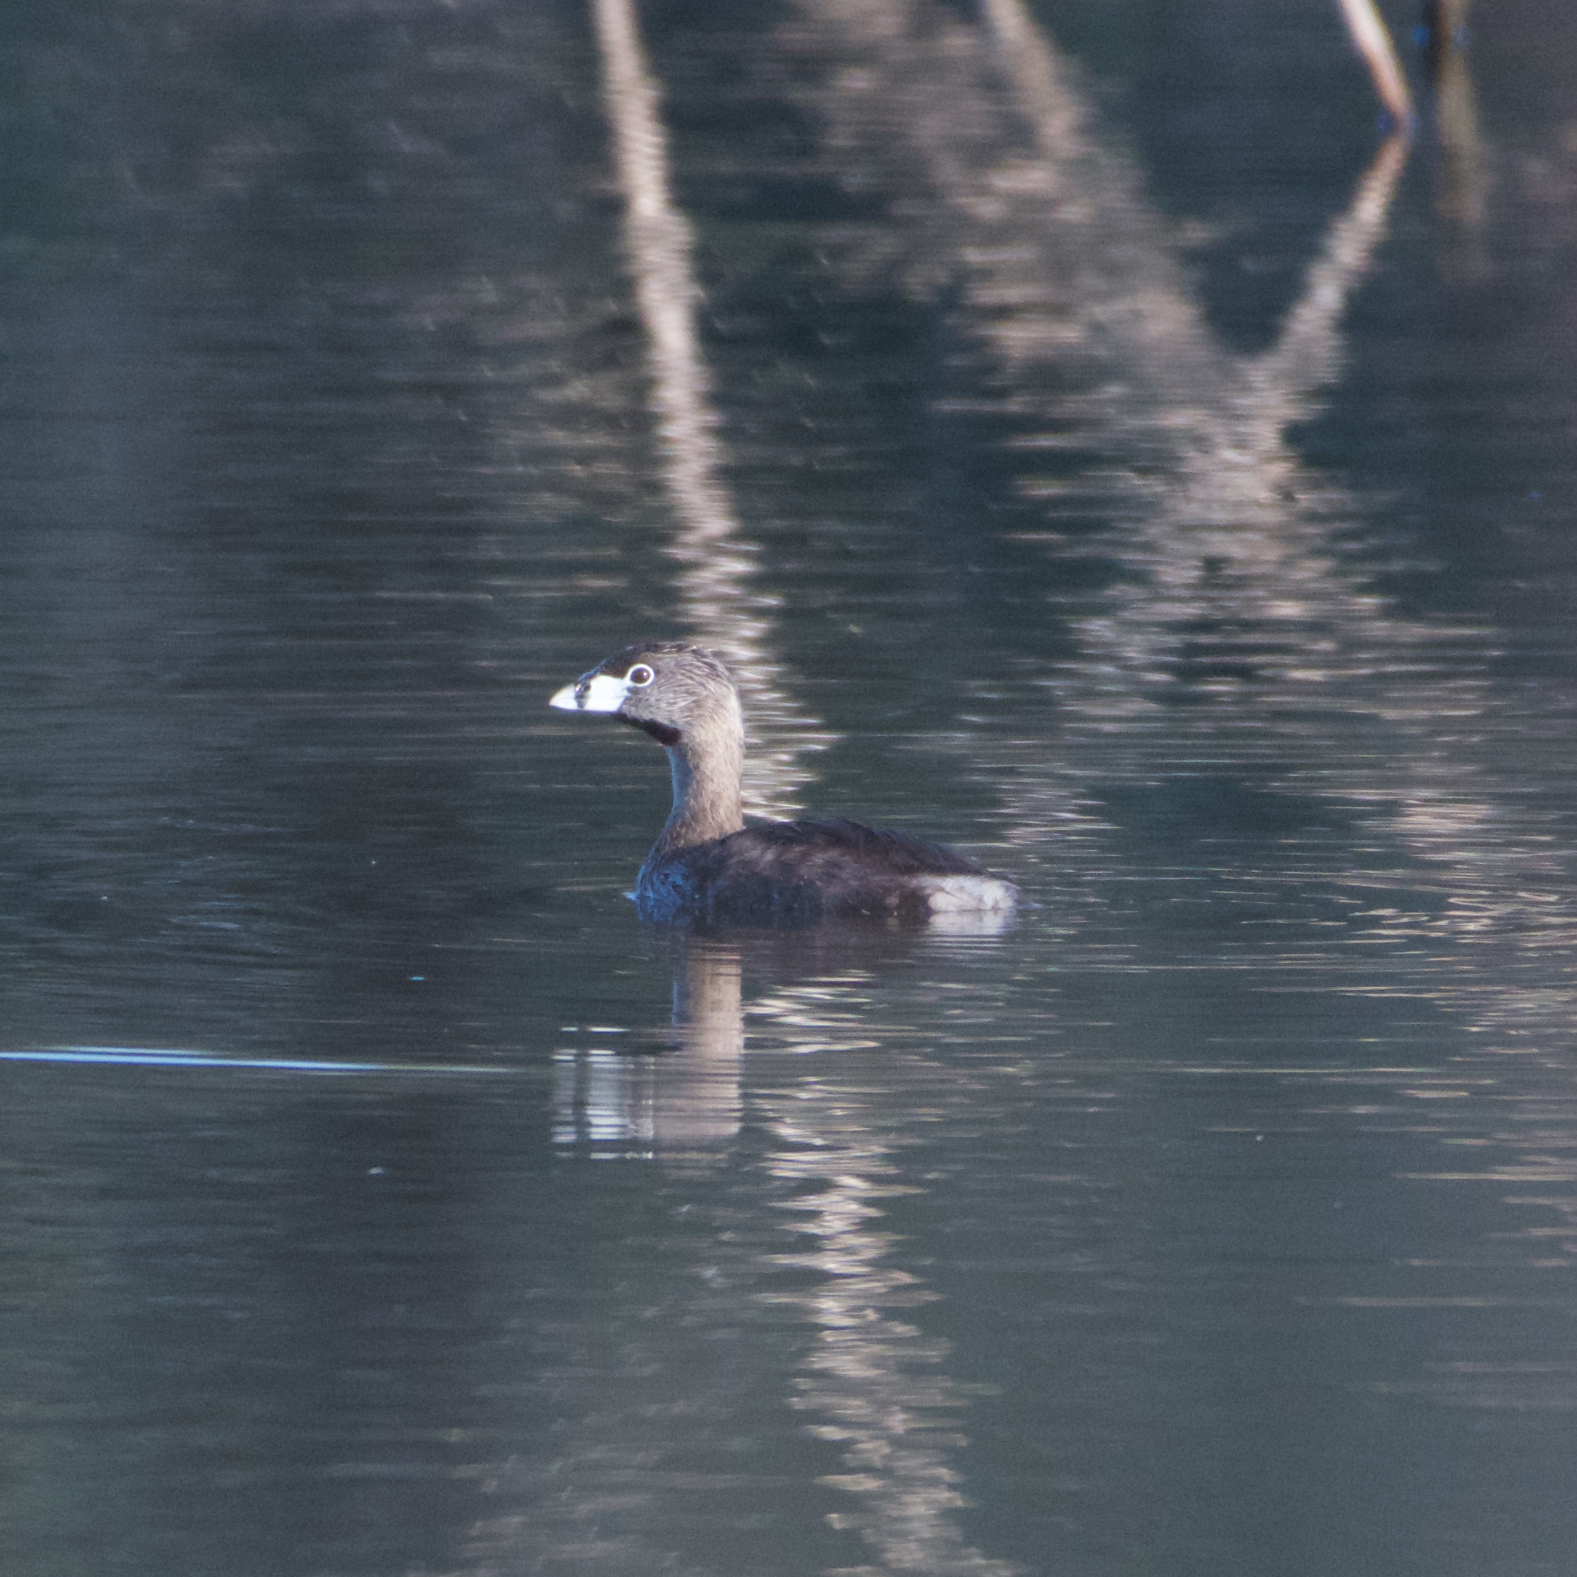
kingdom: Animalia
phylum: Chordata
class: Aves
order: Podicipediformes
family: Podicipedidae
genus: Podilymbus
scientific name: Podilymbus podiceps
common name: Pied-billed grebe
